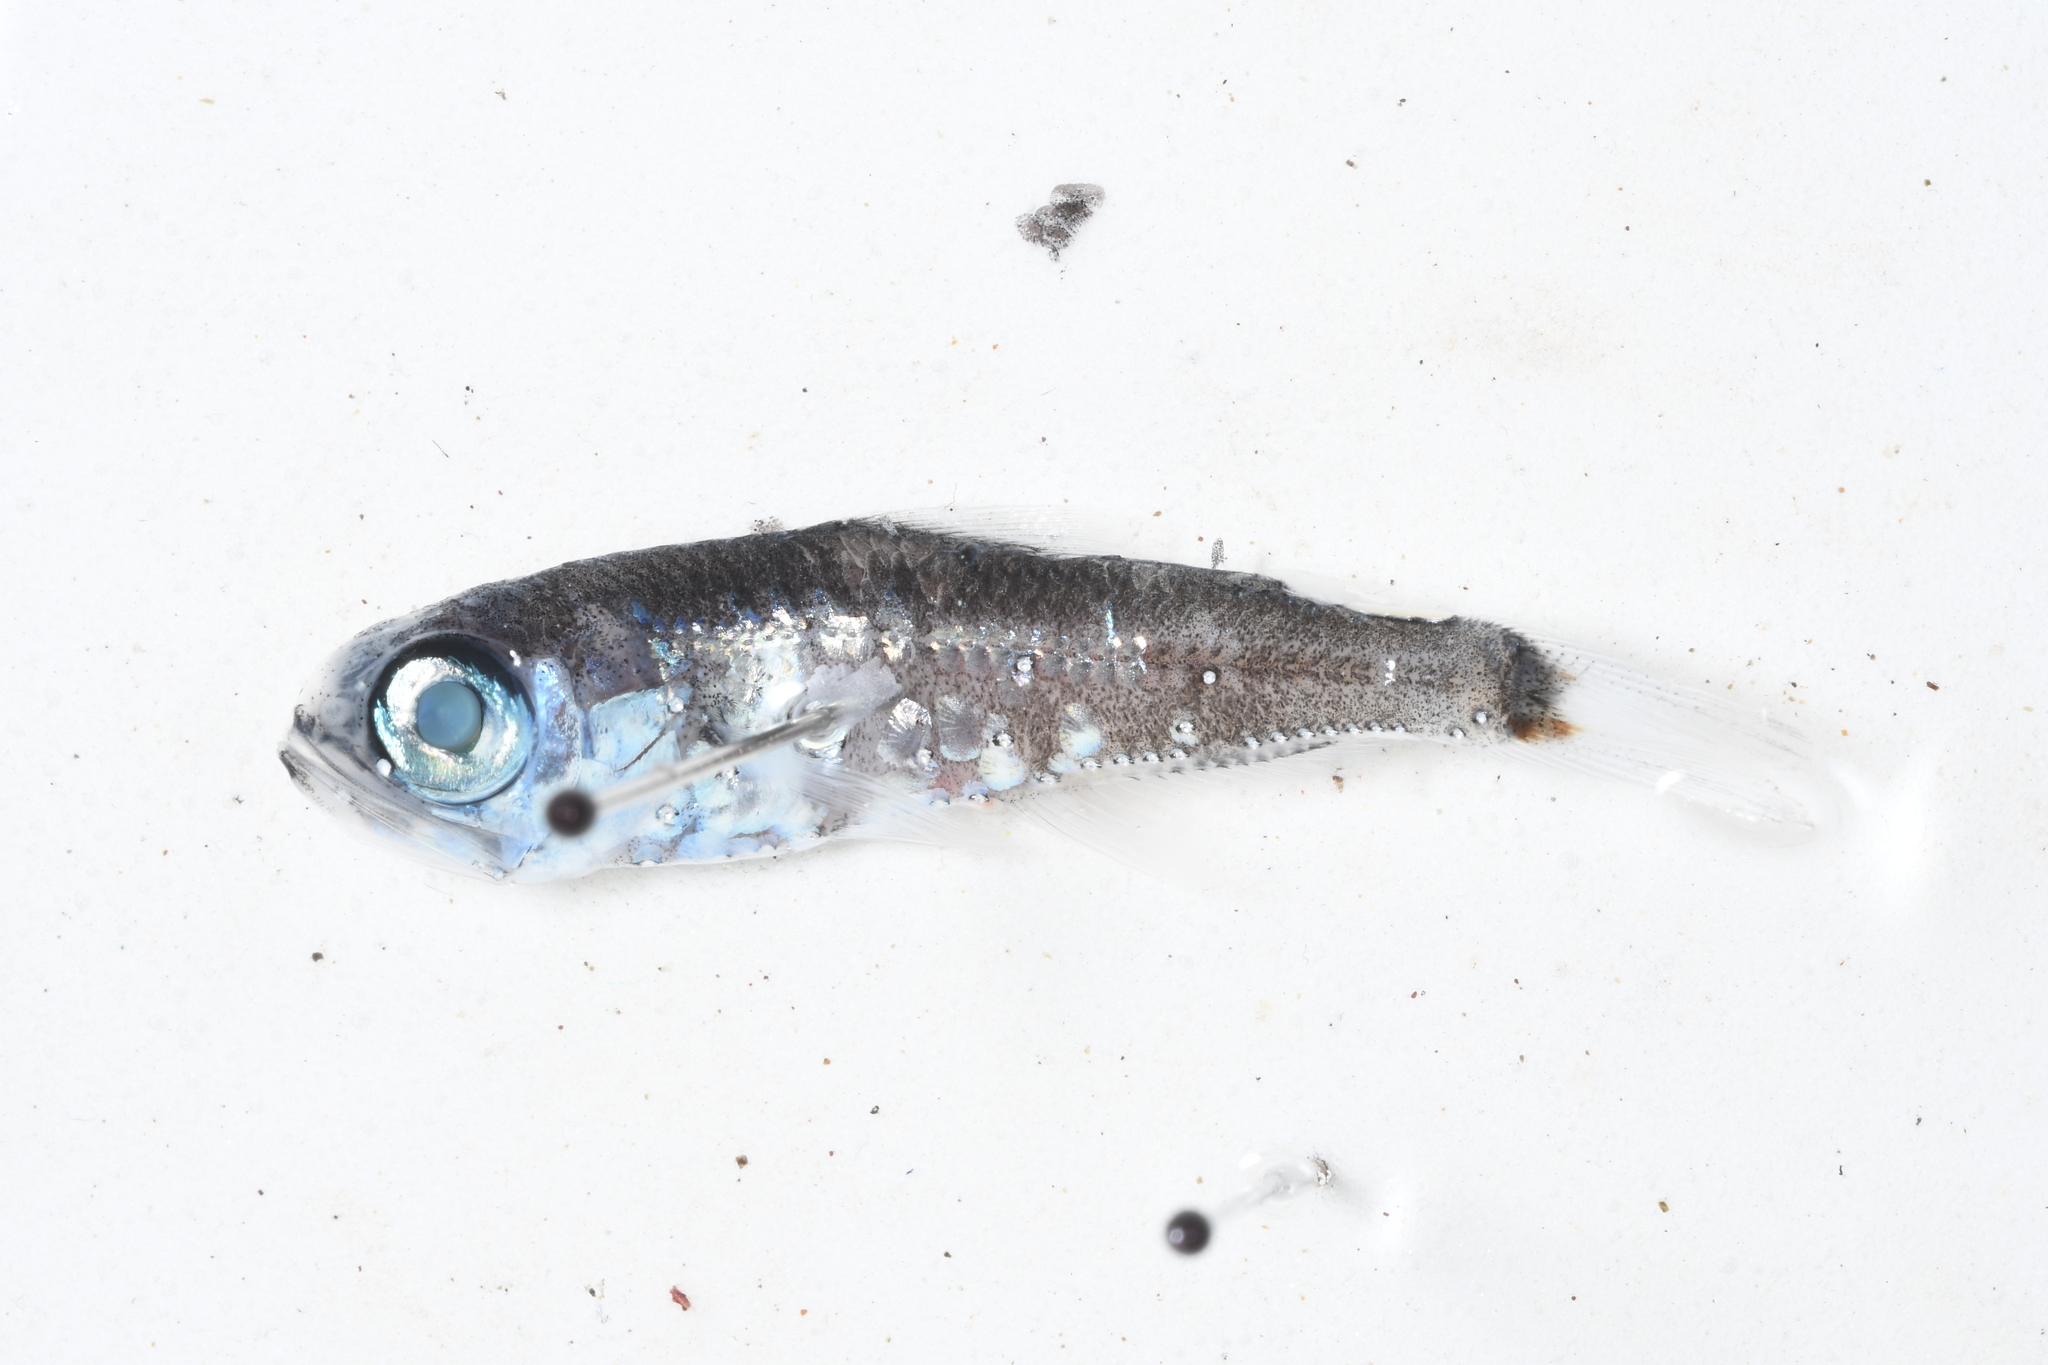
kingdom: Animalia
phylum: Chordata
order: Myctophiformes
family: Myctophidae
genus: Hygophum
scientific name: Hygophum benoiti
